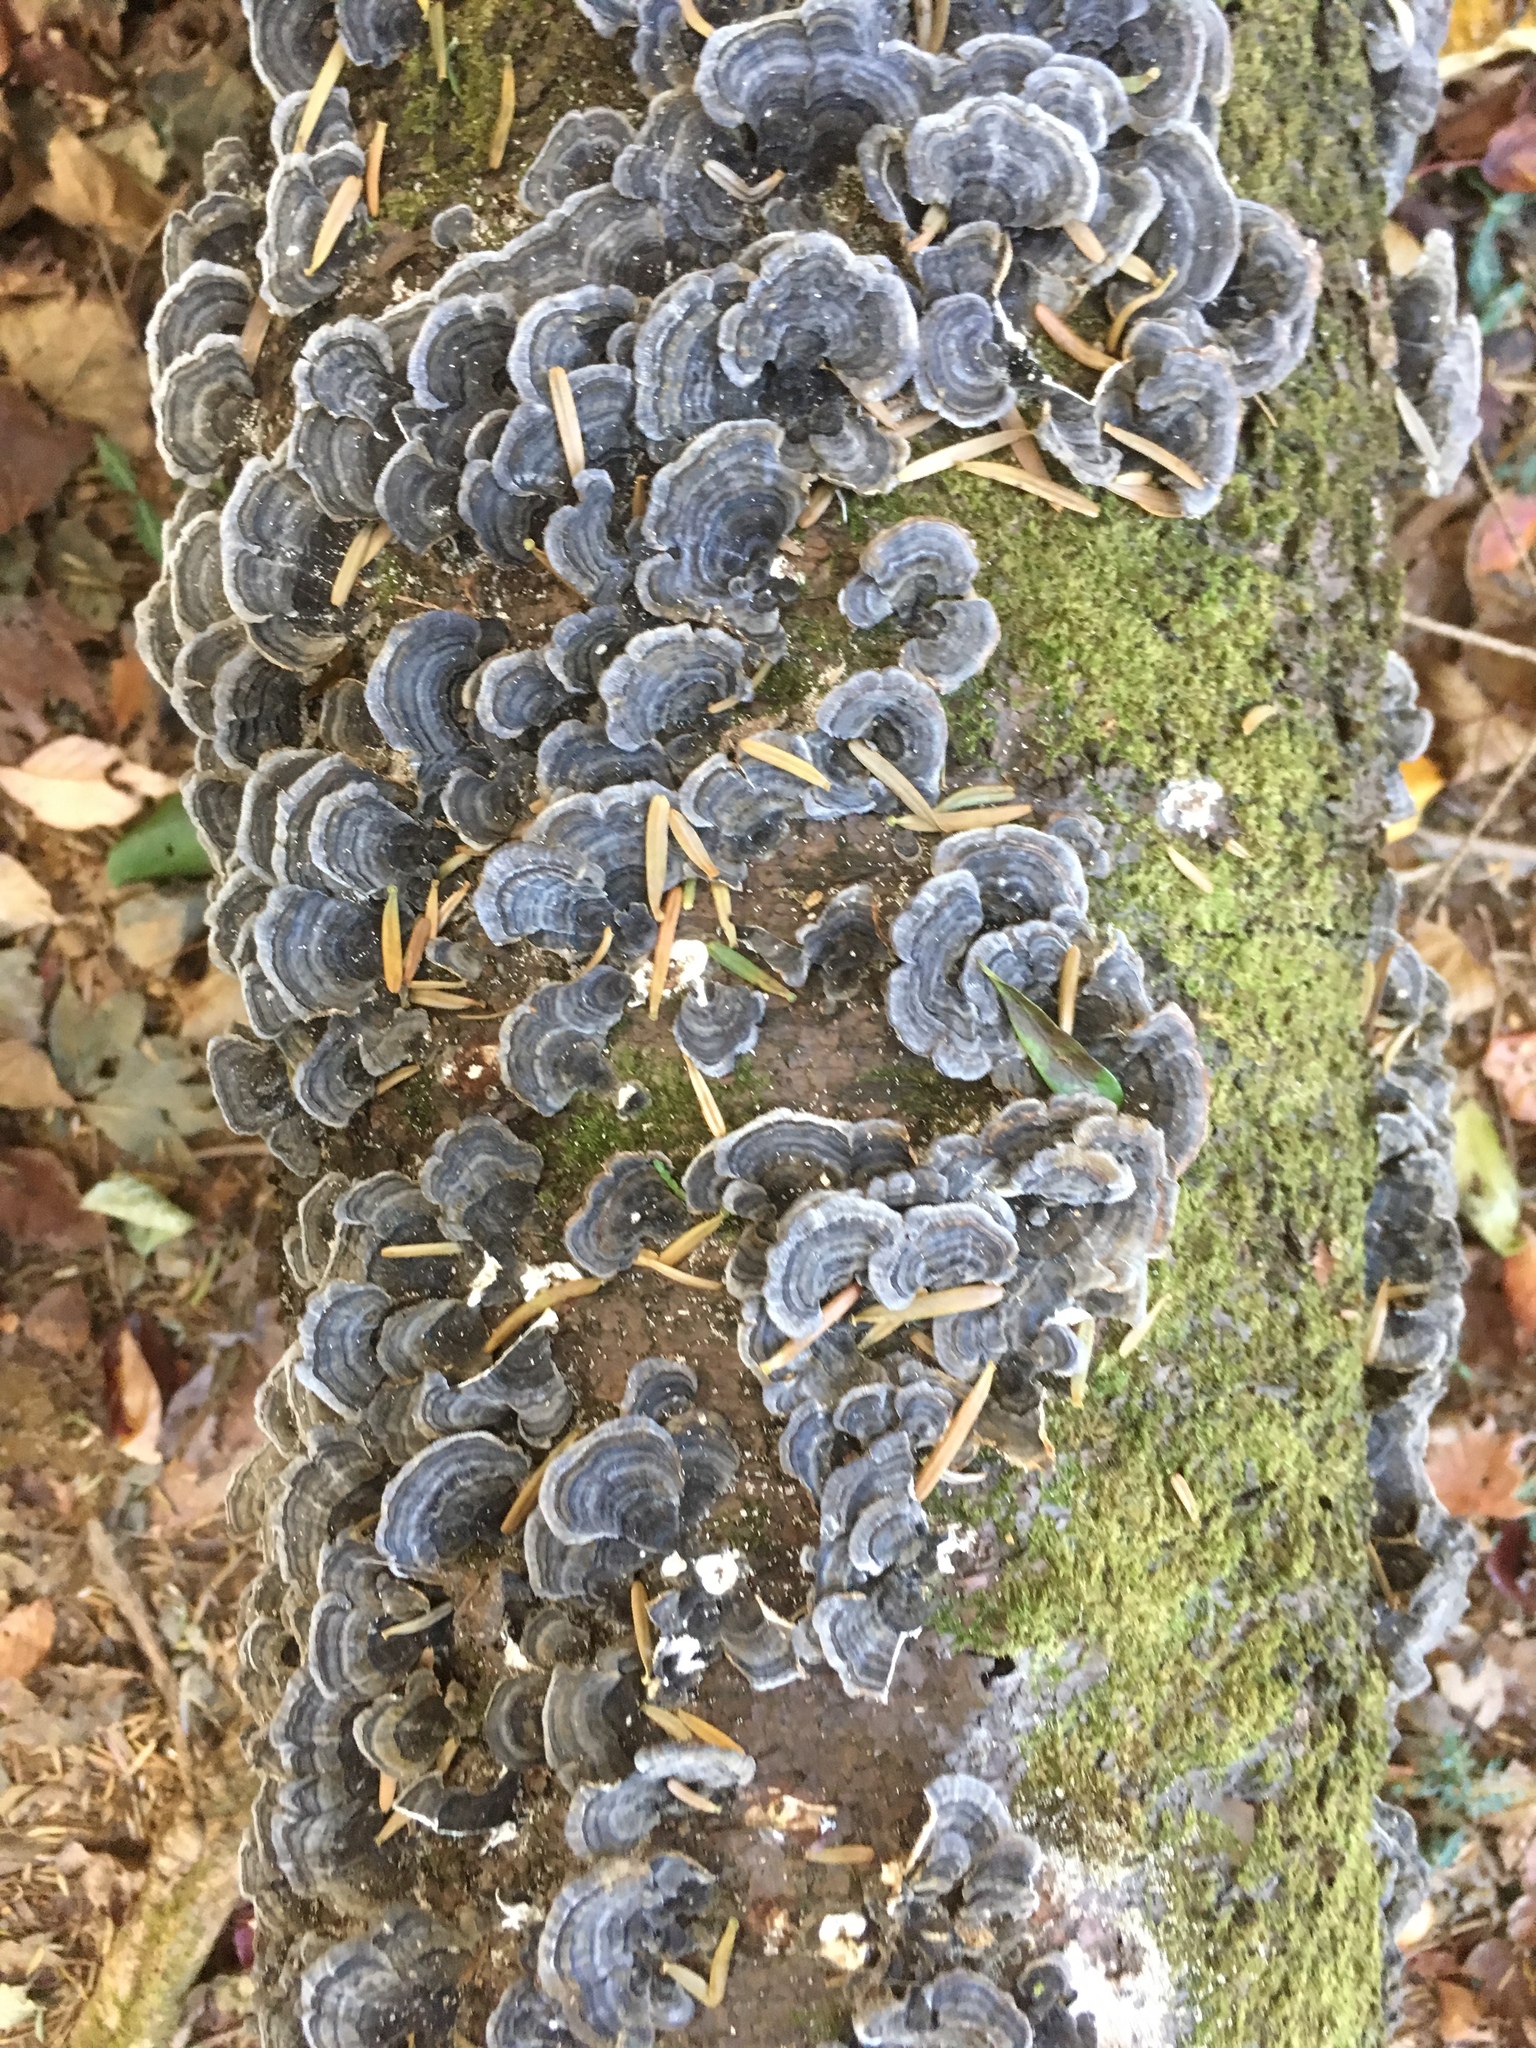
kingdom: Fungi
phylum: Basidiomycota
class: Agaricomycetes
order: Polyporales
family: Polyporaceae
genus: Trametes
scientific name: Trametes versicolor
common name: Turkeytail
